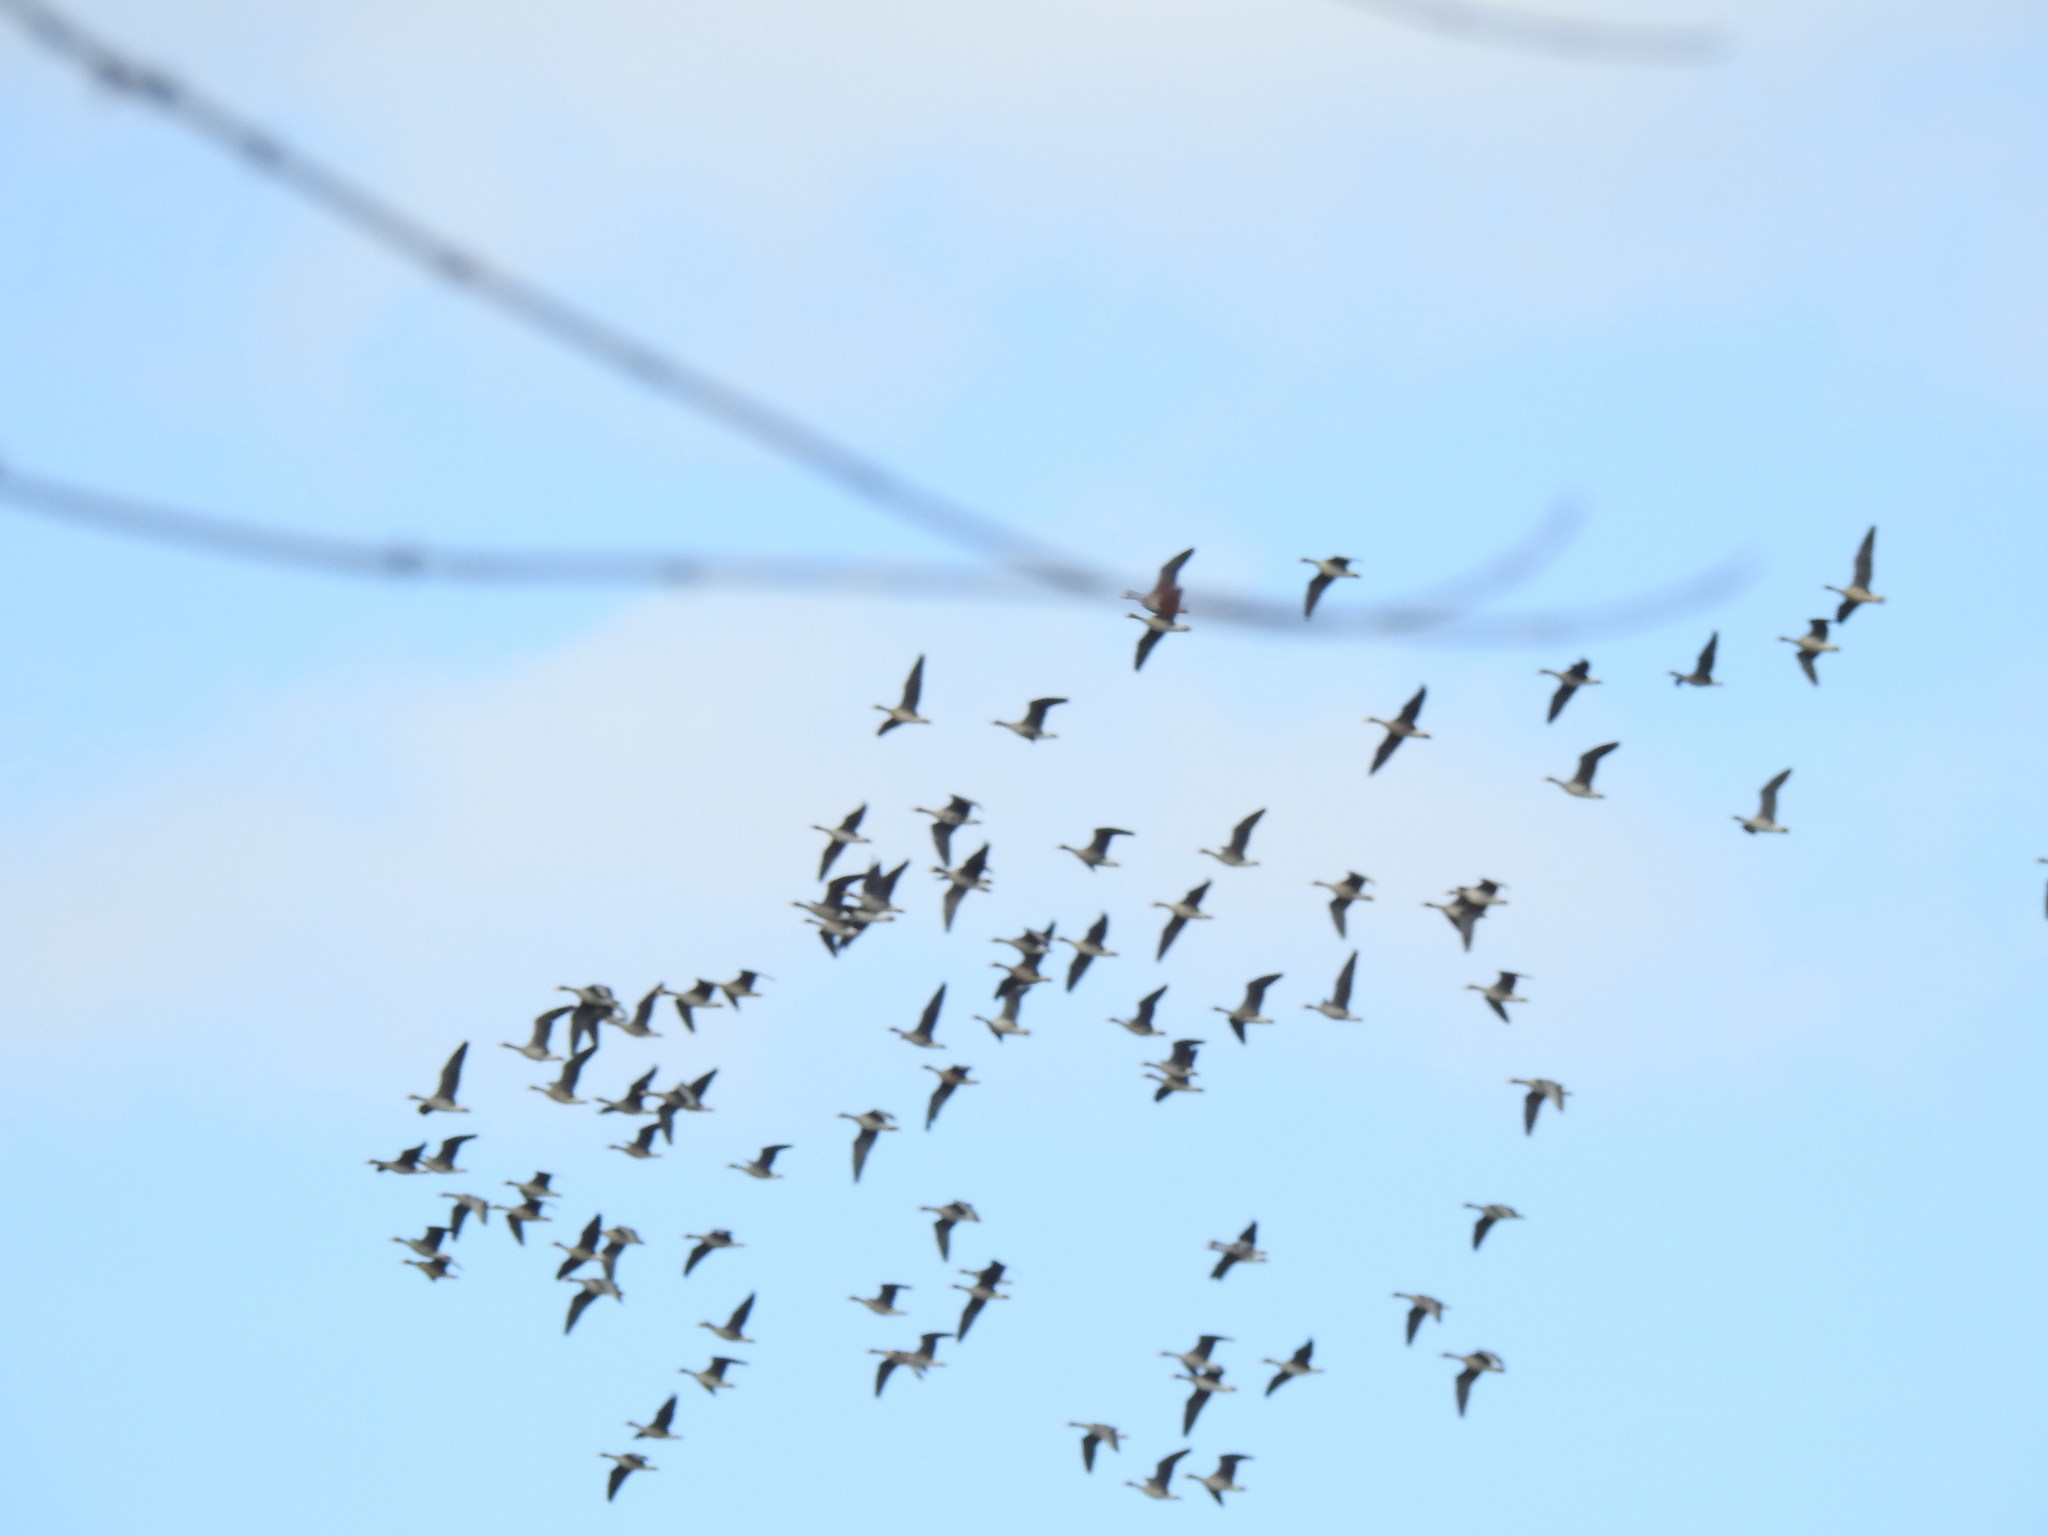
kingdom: Animalia
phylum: Chordata
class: Aves
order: Anseriformes
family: Anatidae
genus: Anser
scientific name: Anser albifrons
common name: Greater white-fronted goose
